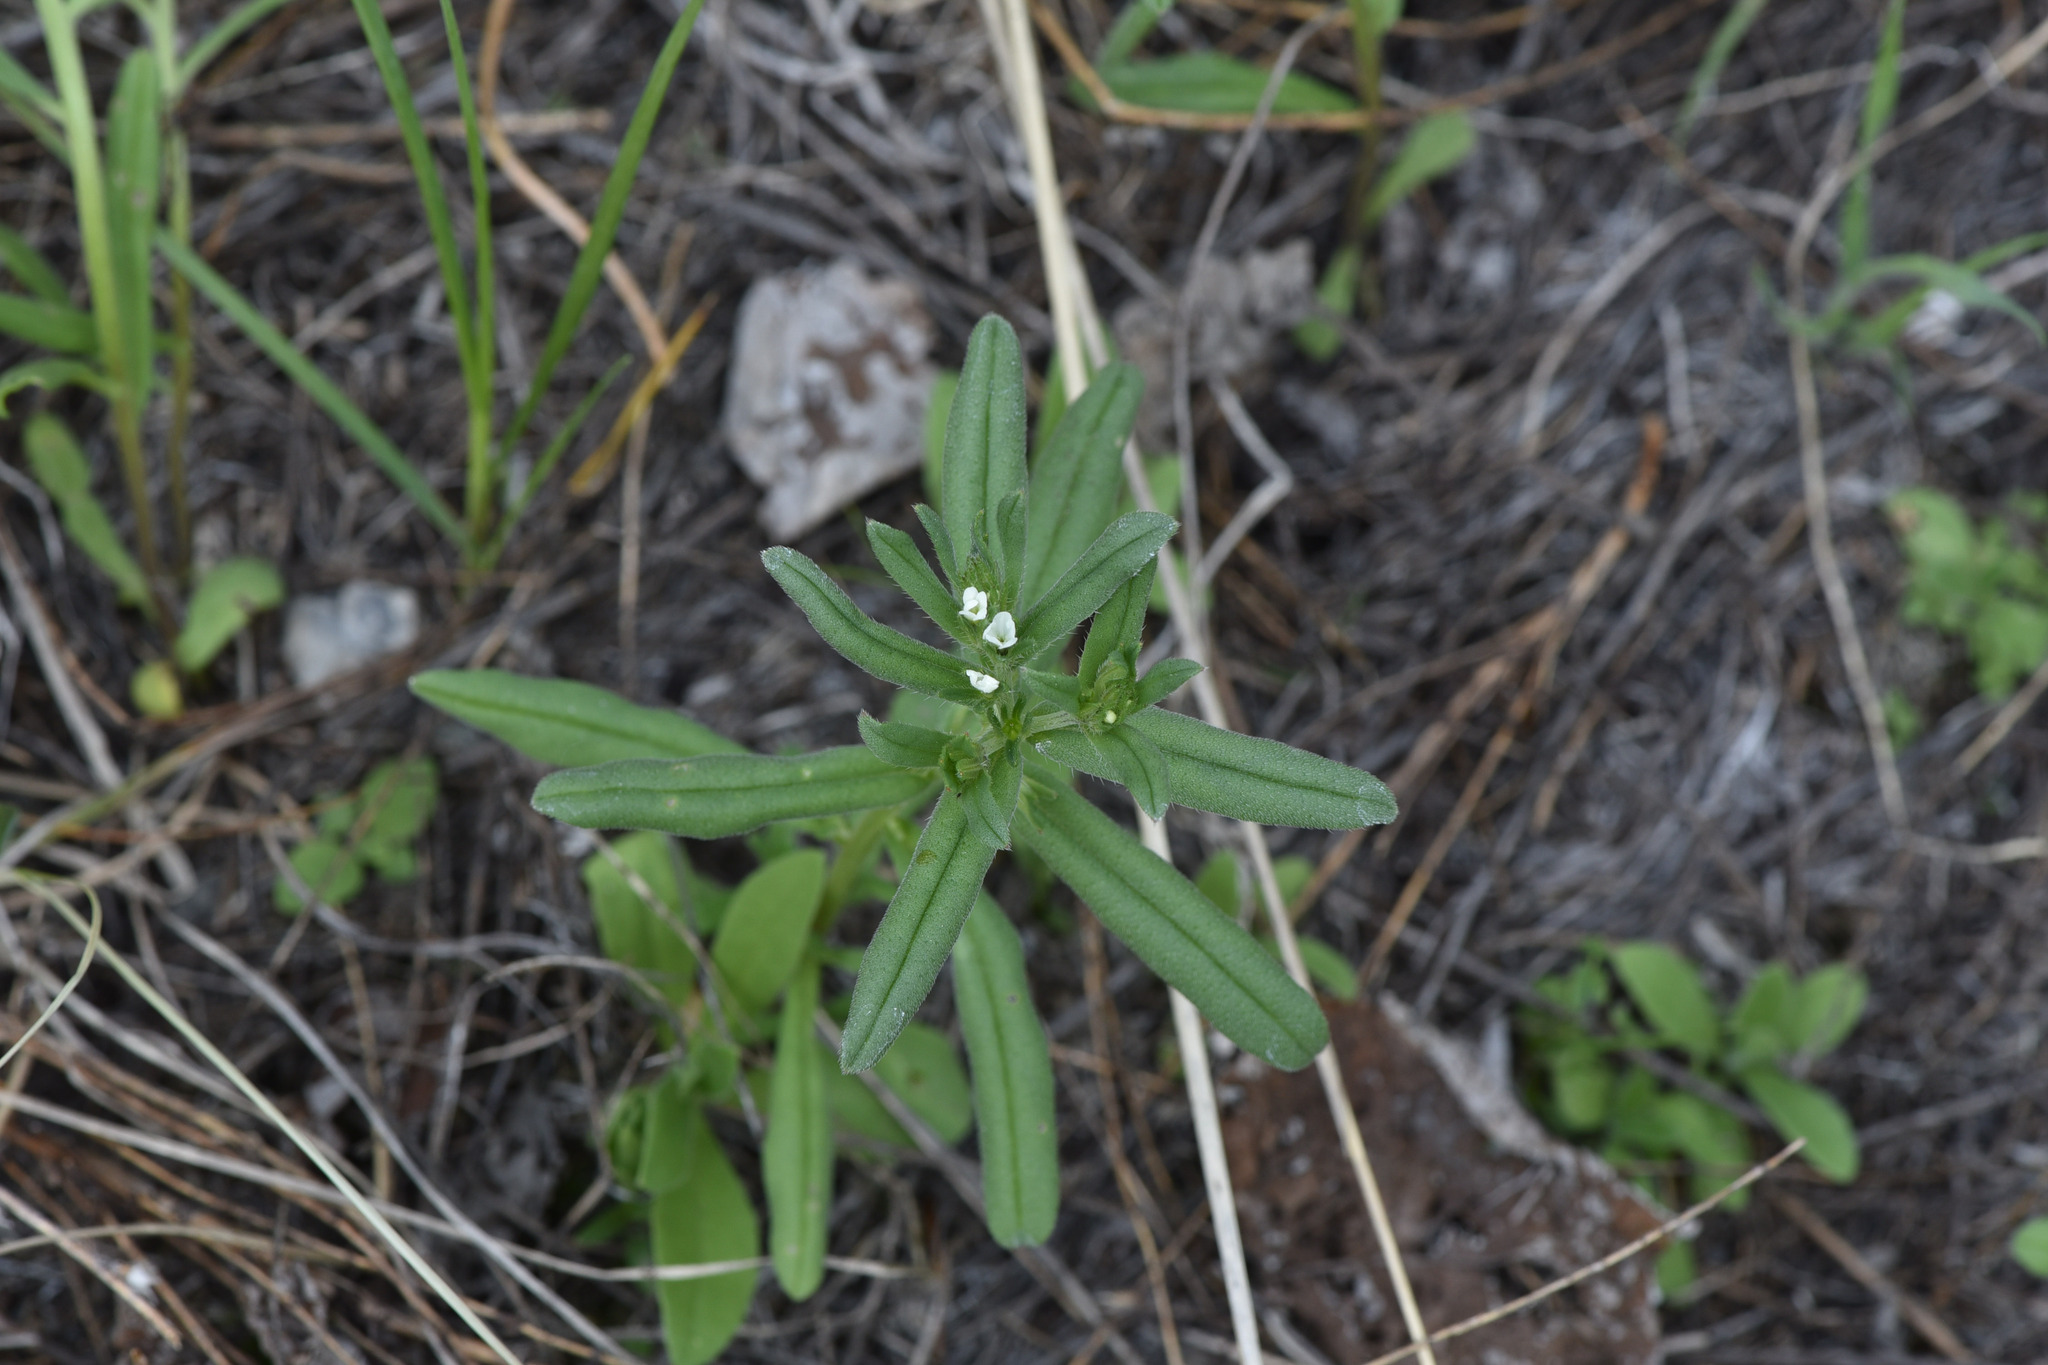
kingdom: Plantae
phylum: Tracheophyta
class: Magnoliopsida
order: Boraginales
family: Boraginaceae
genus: Buglossoides
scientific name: Buglossoides arvensis
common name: Corn gromwell
